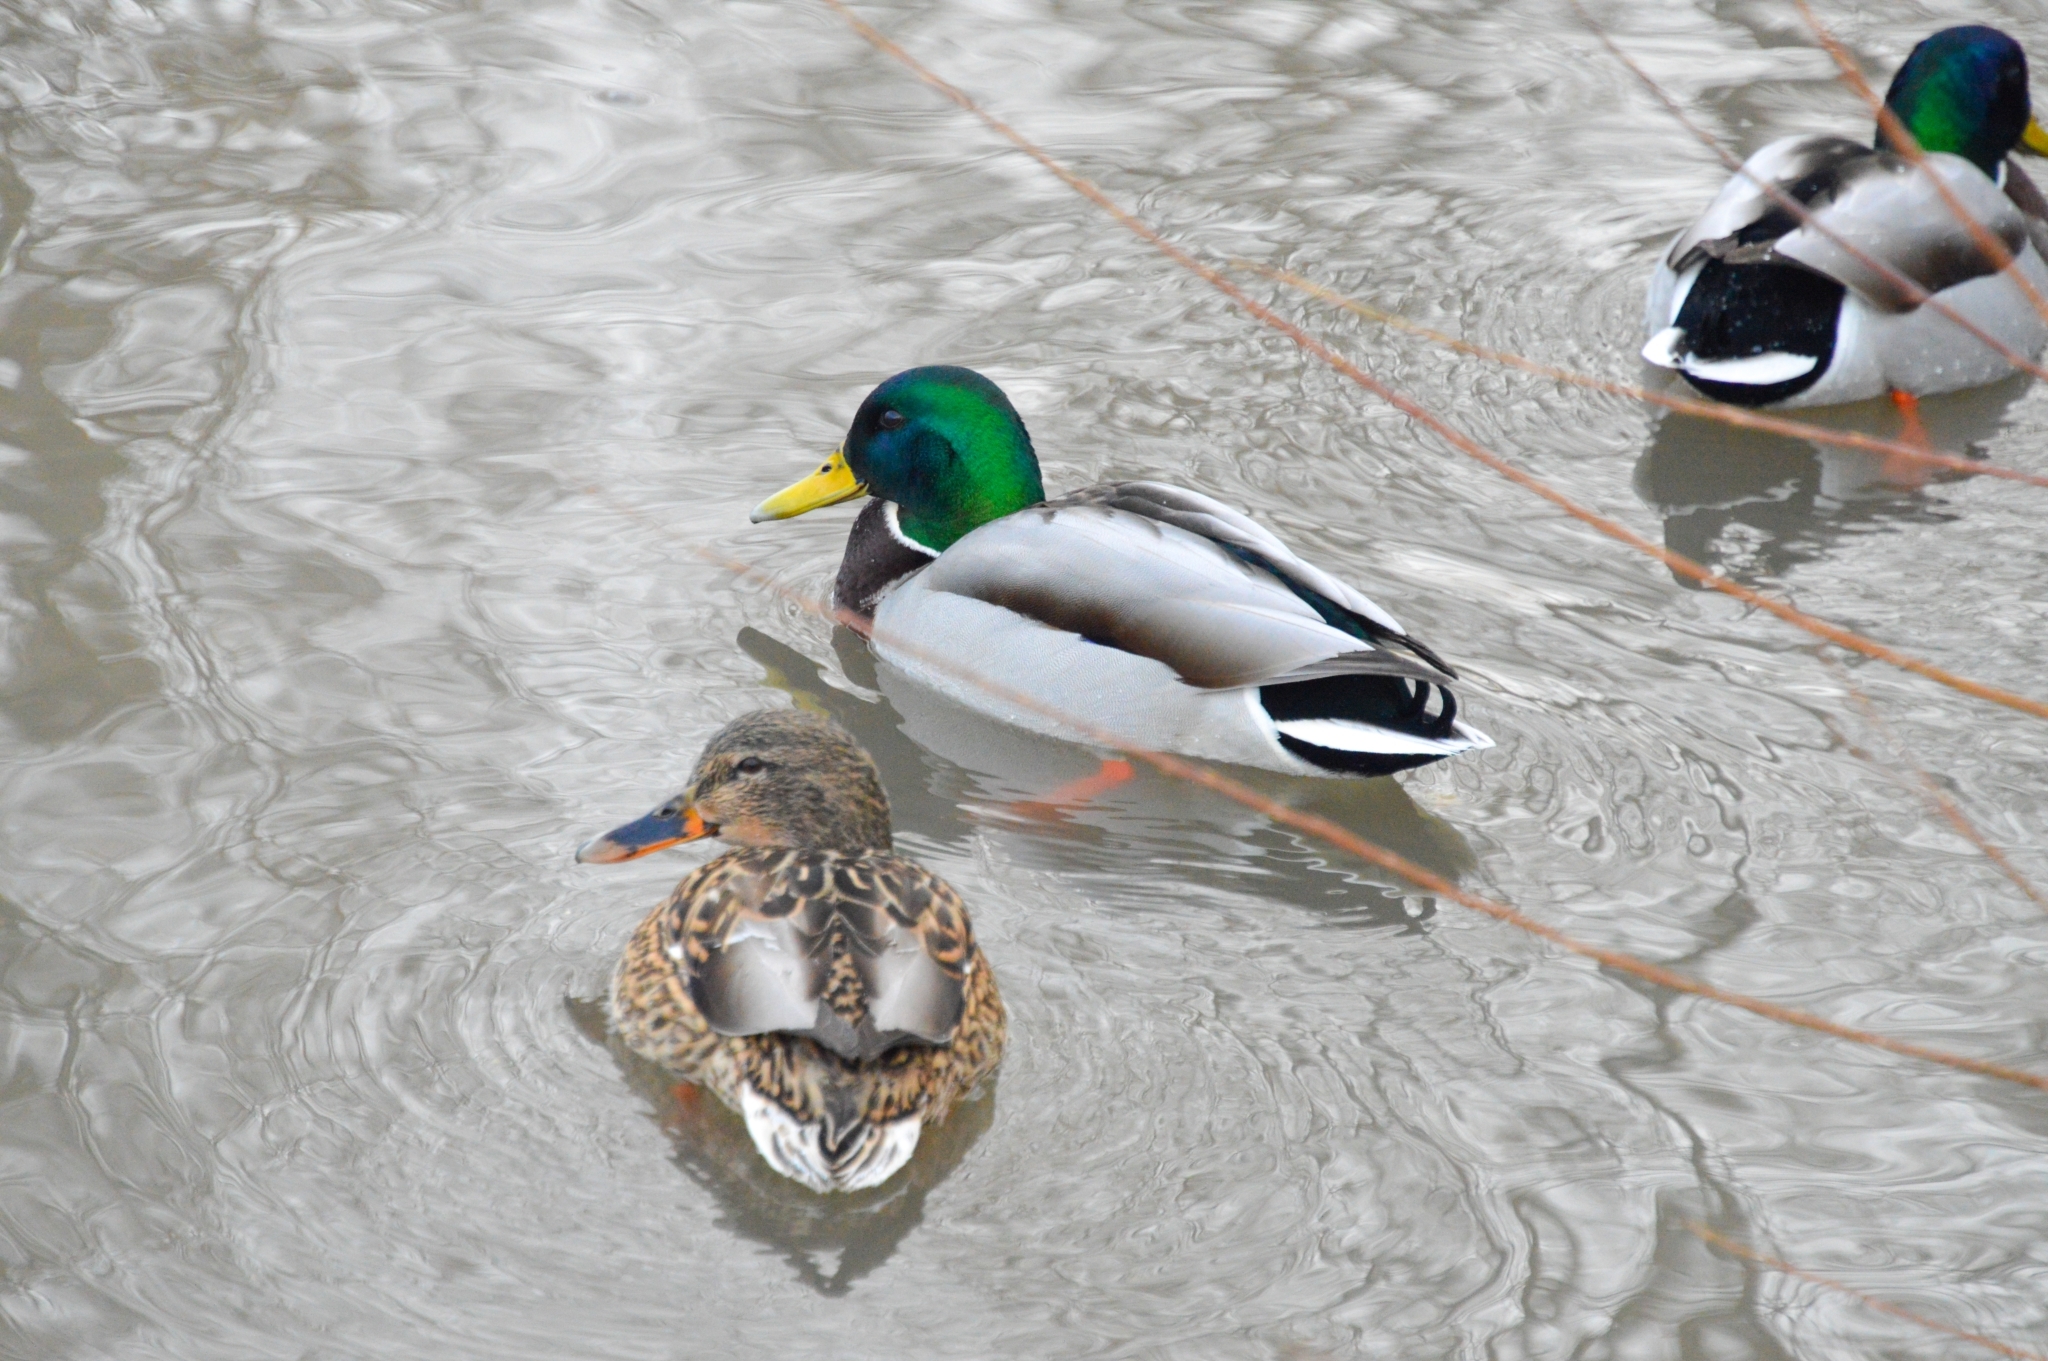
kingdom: Animalia
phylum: Chordata
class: Aves
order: Anseriformes
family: Anatidae
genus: Anas
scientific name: Anas platyrhynchos
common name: Mallard
